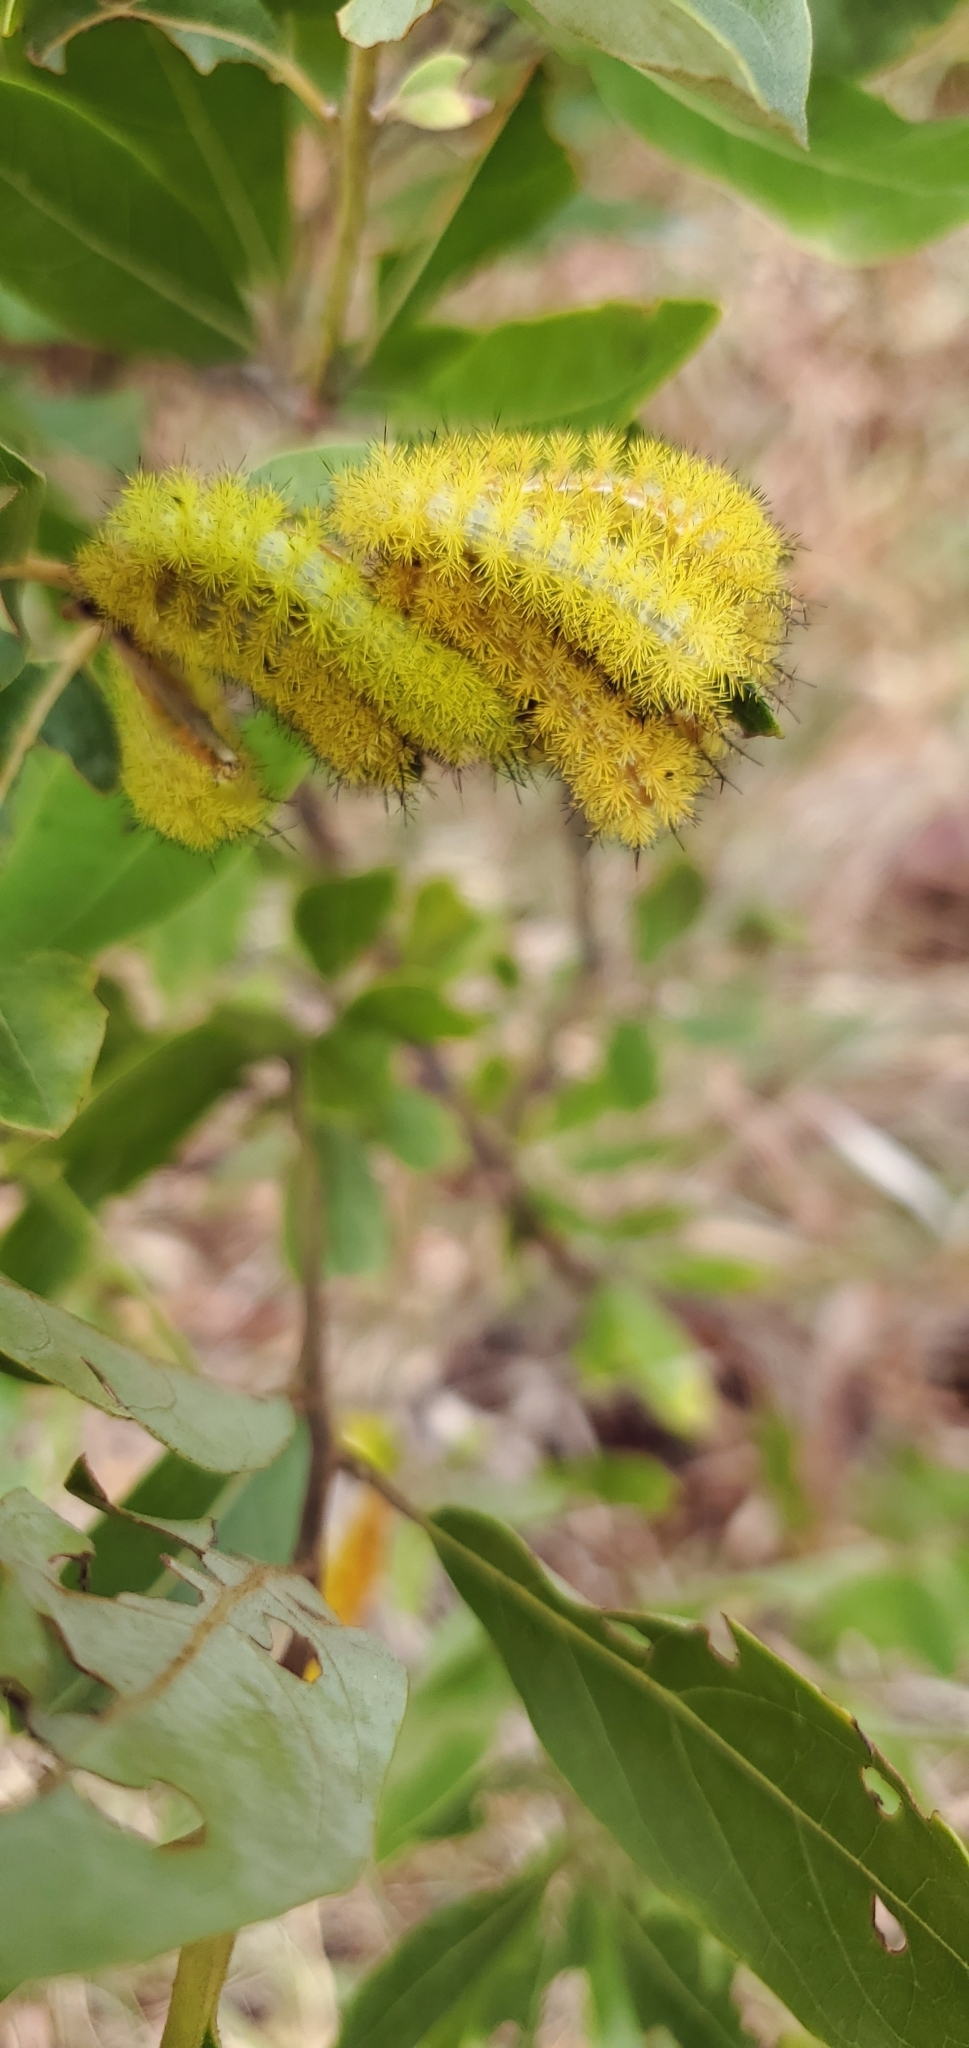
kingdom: Animalia
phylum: Arthropoda
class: Insecta
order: Lepidoptera
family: Saturniidae
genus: Automeris
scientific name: Automeris io
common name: Io moth
